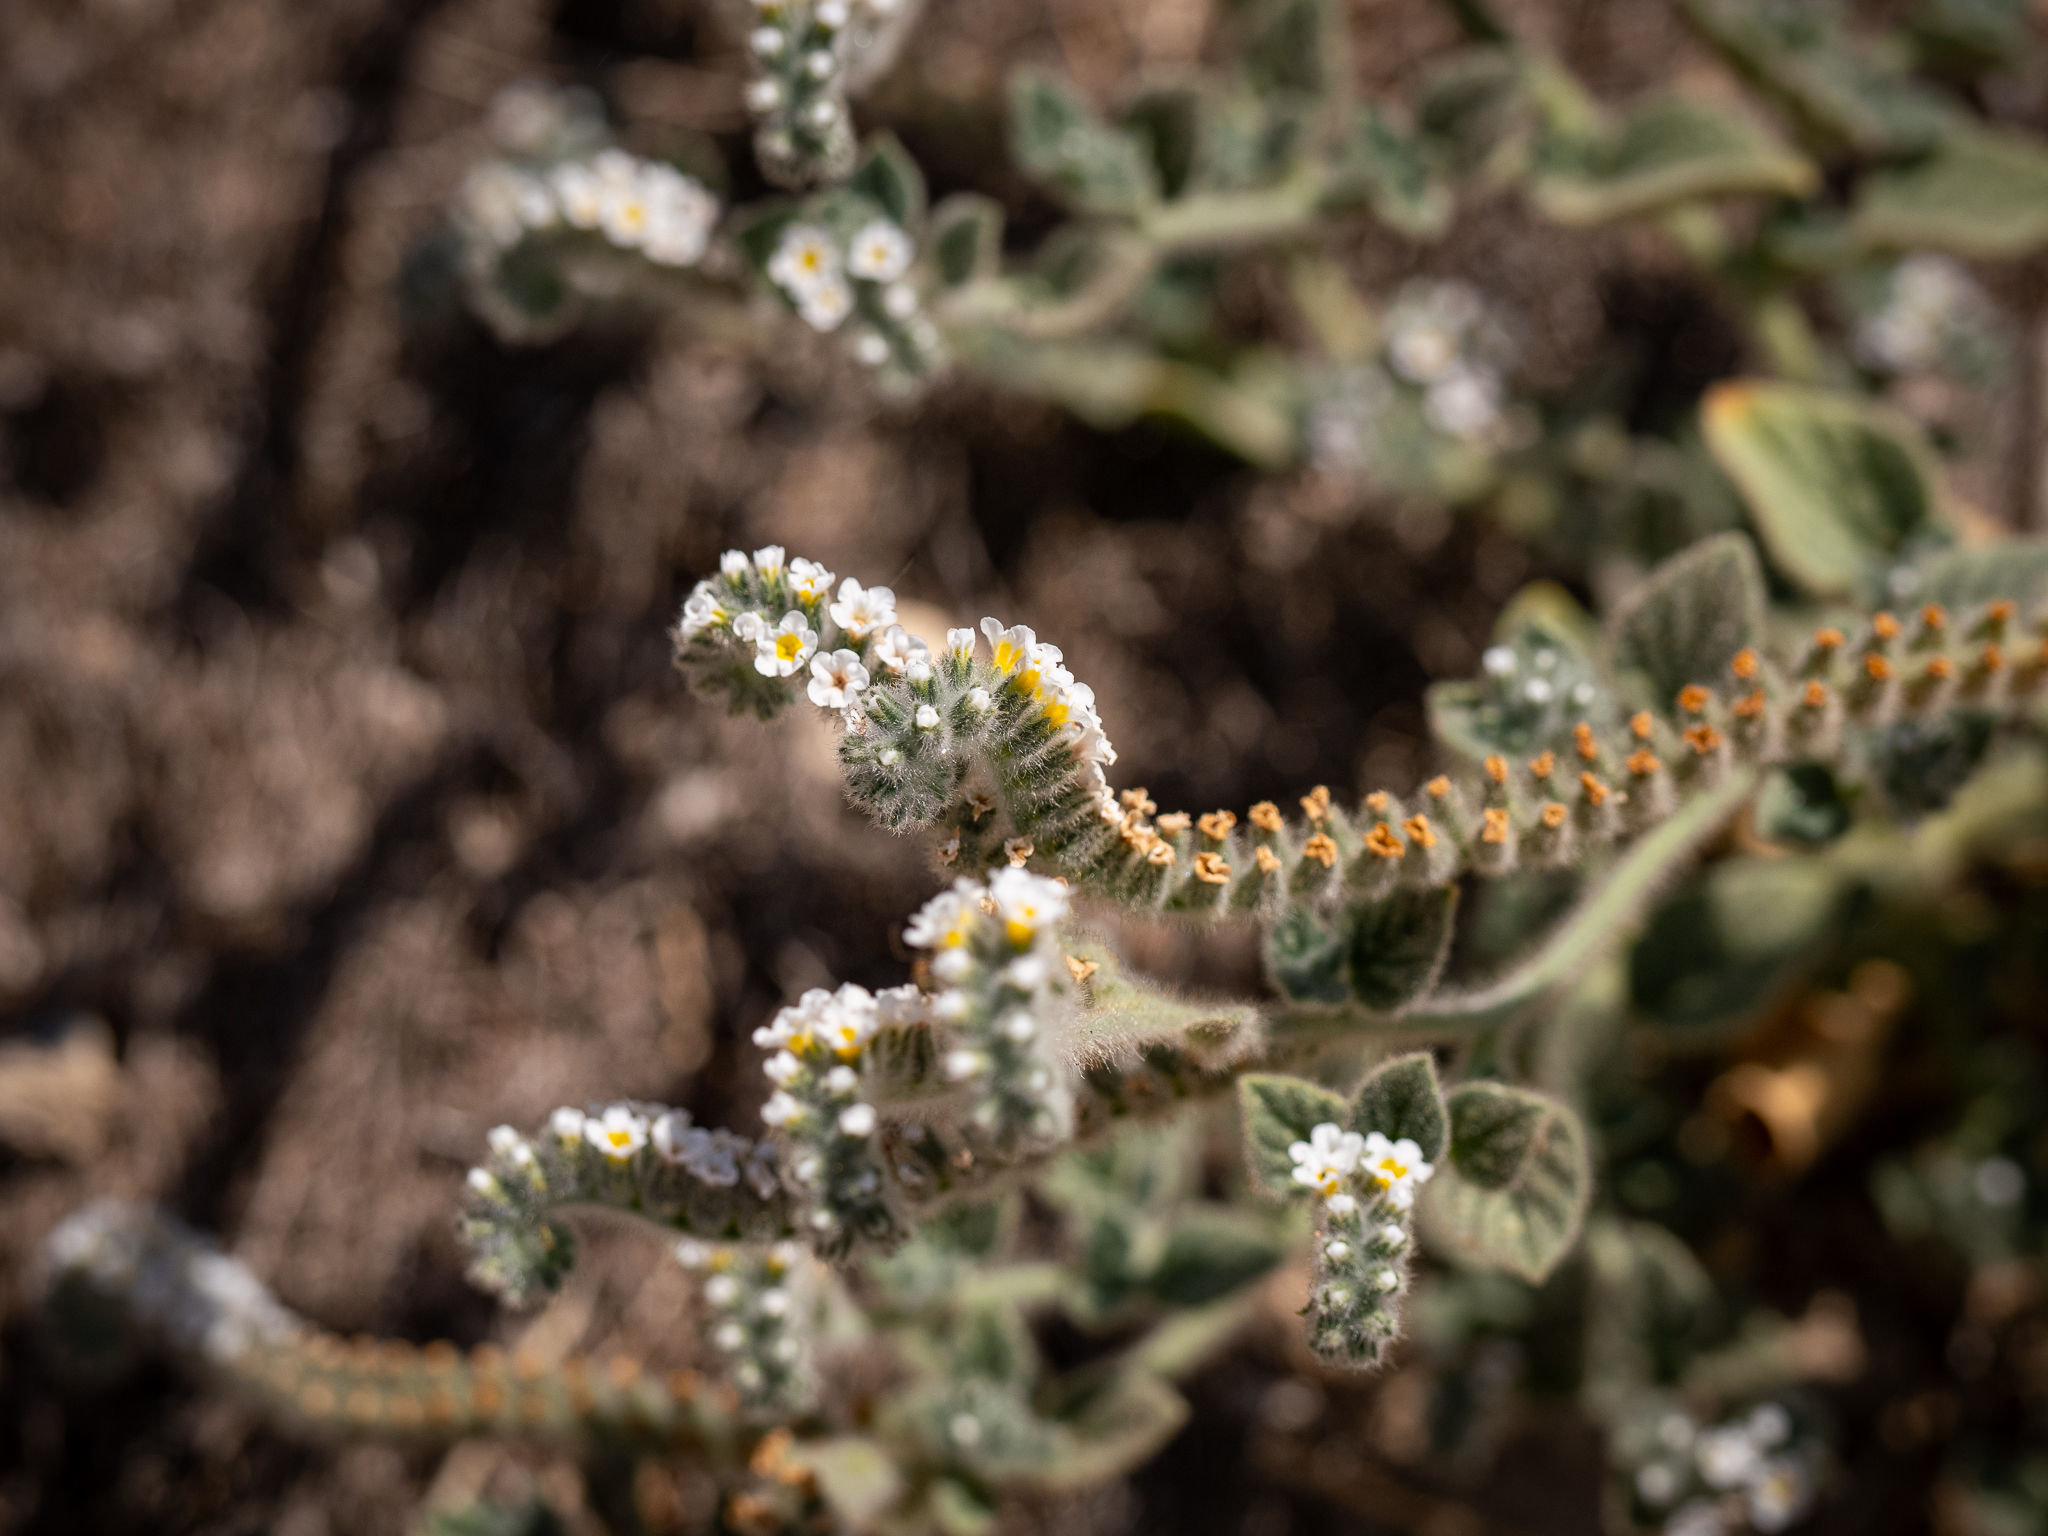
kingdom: Plantae
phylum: Tracheophyta
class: Magnoliopsida
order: Boraginales
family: Heliotropiaceae
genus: Heliotropium
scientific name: Heliotropium hirsutissimum
